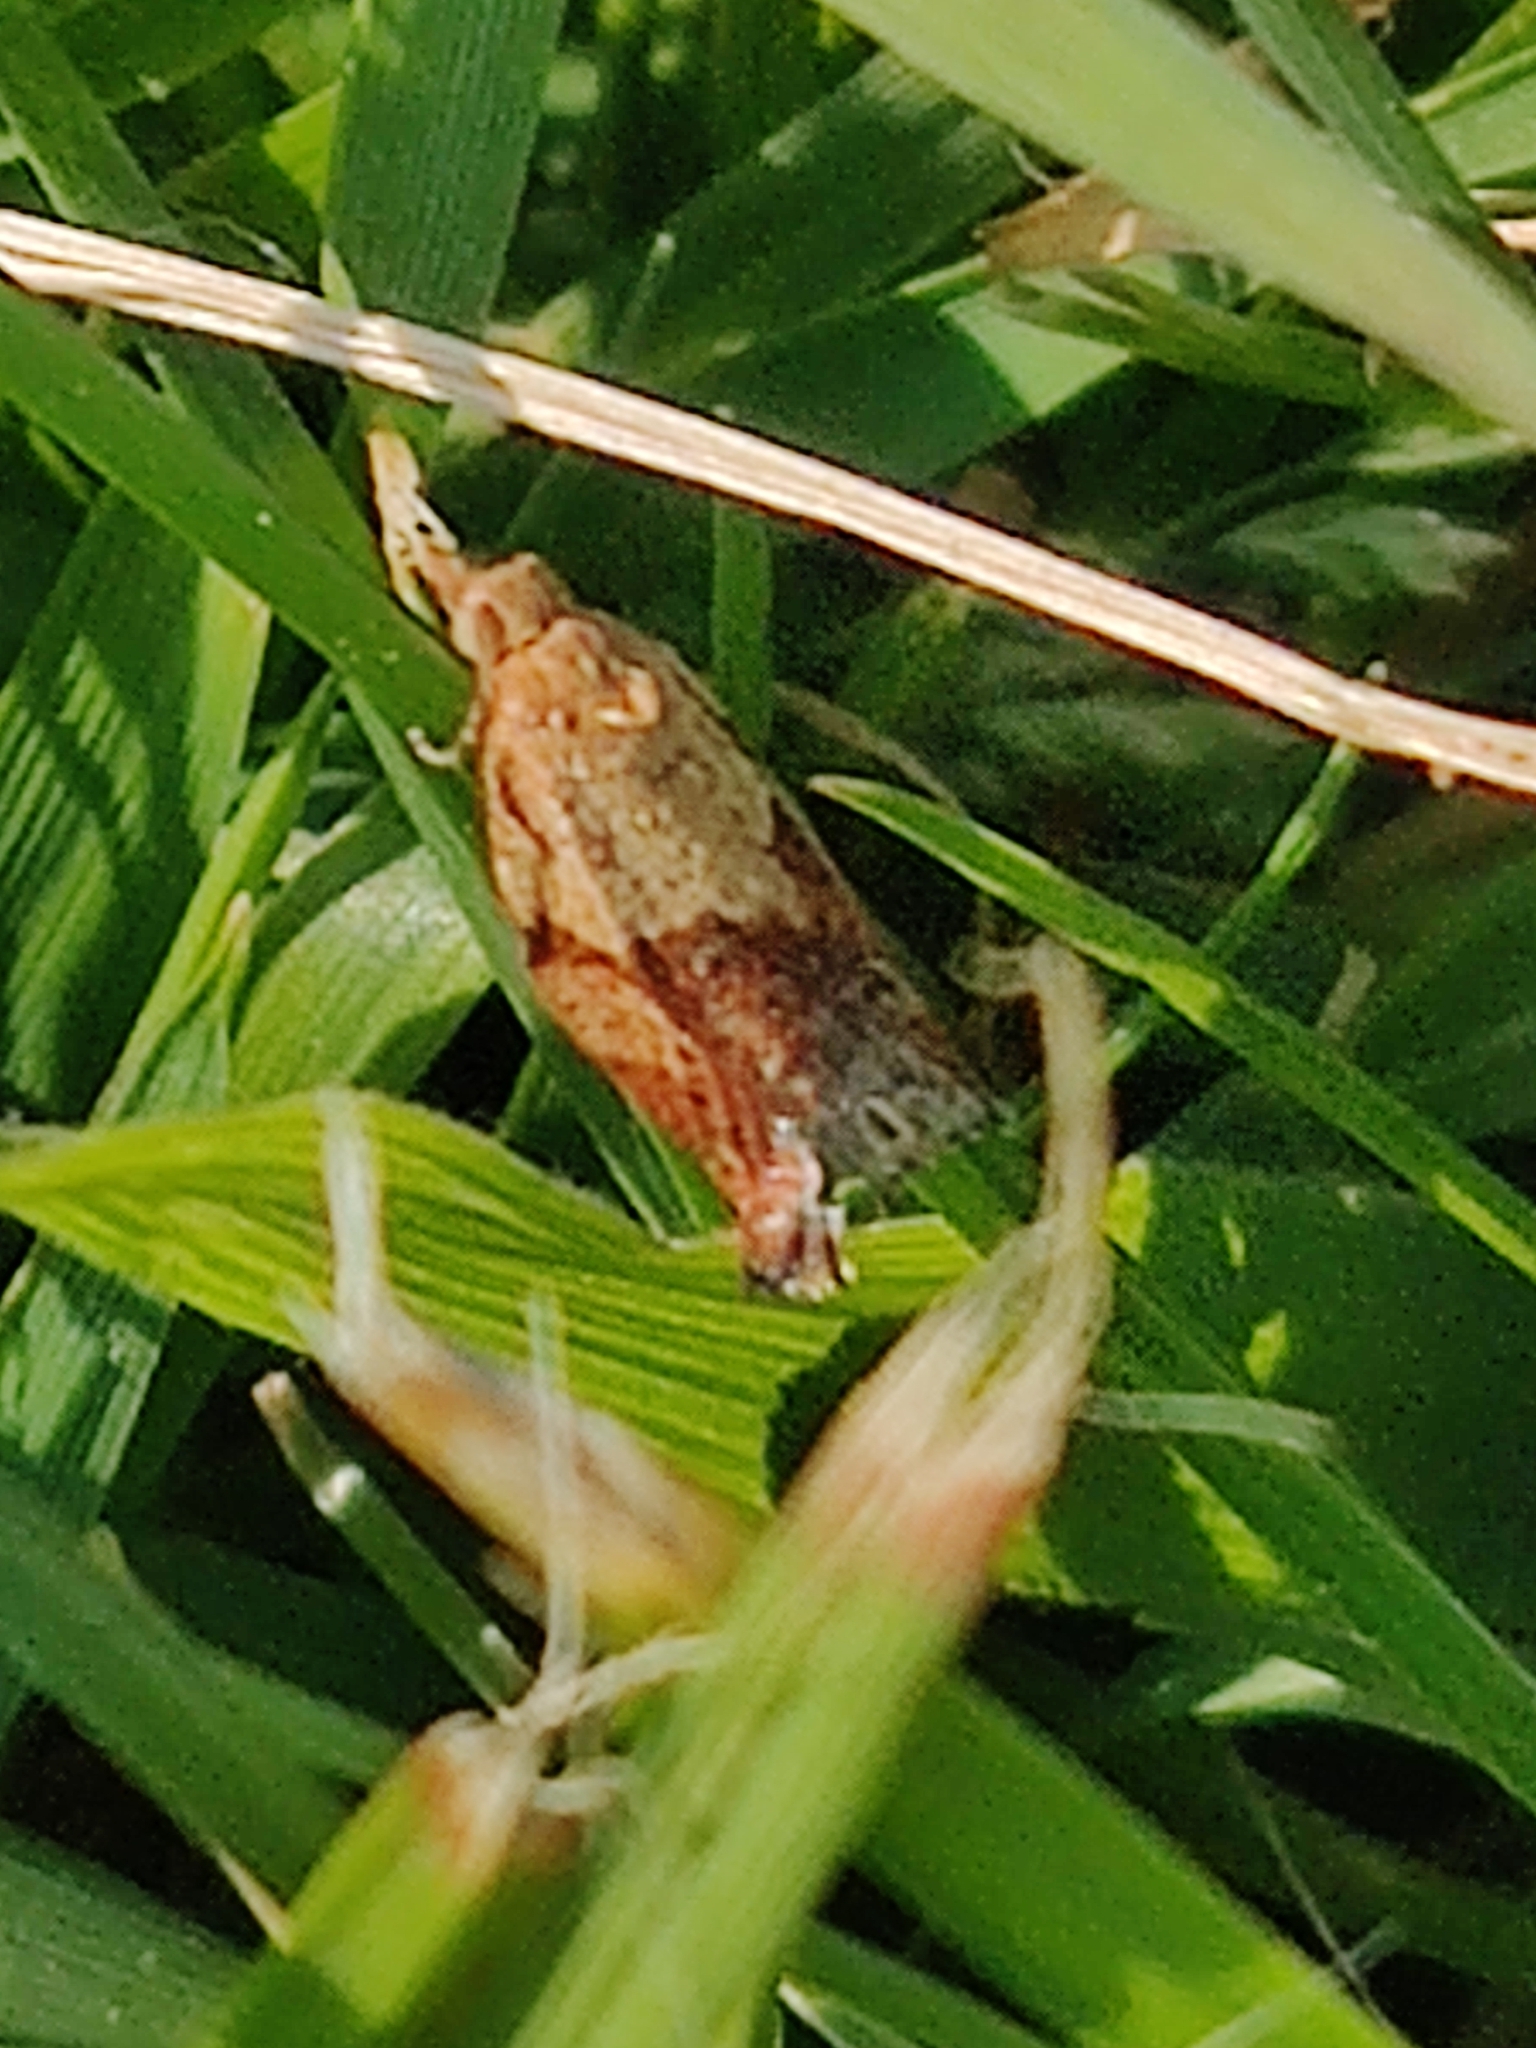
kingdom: Animalia
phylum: Arthropoda
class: Insecta
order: Lepidoptera
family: Tortricidae
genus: Epiphyas
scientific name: Epiphyas postvittana
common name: Light brown apple moth
